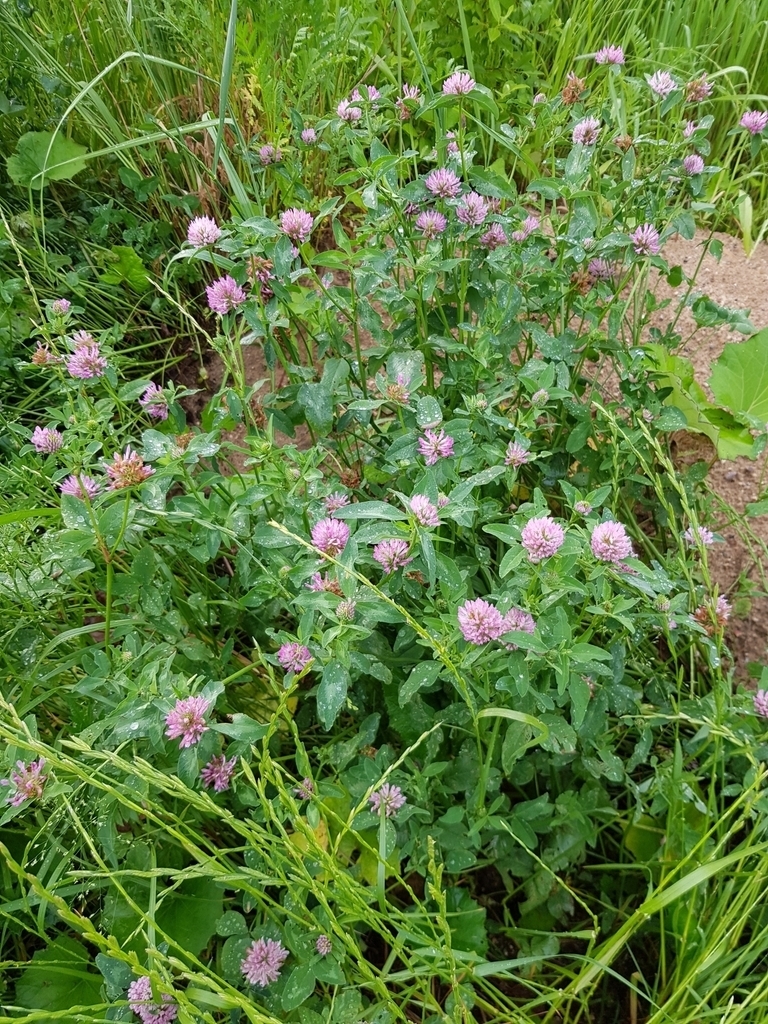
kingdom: Plantae
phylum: Tracheophyta
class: Magnoliopsida
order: Fabales
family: Fabaceae
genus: Trifolium
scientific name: Trifolium pratense
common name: Red clover
